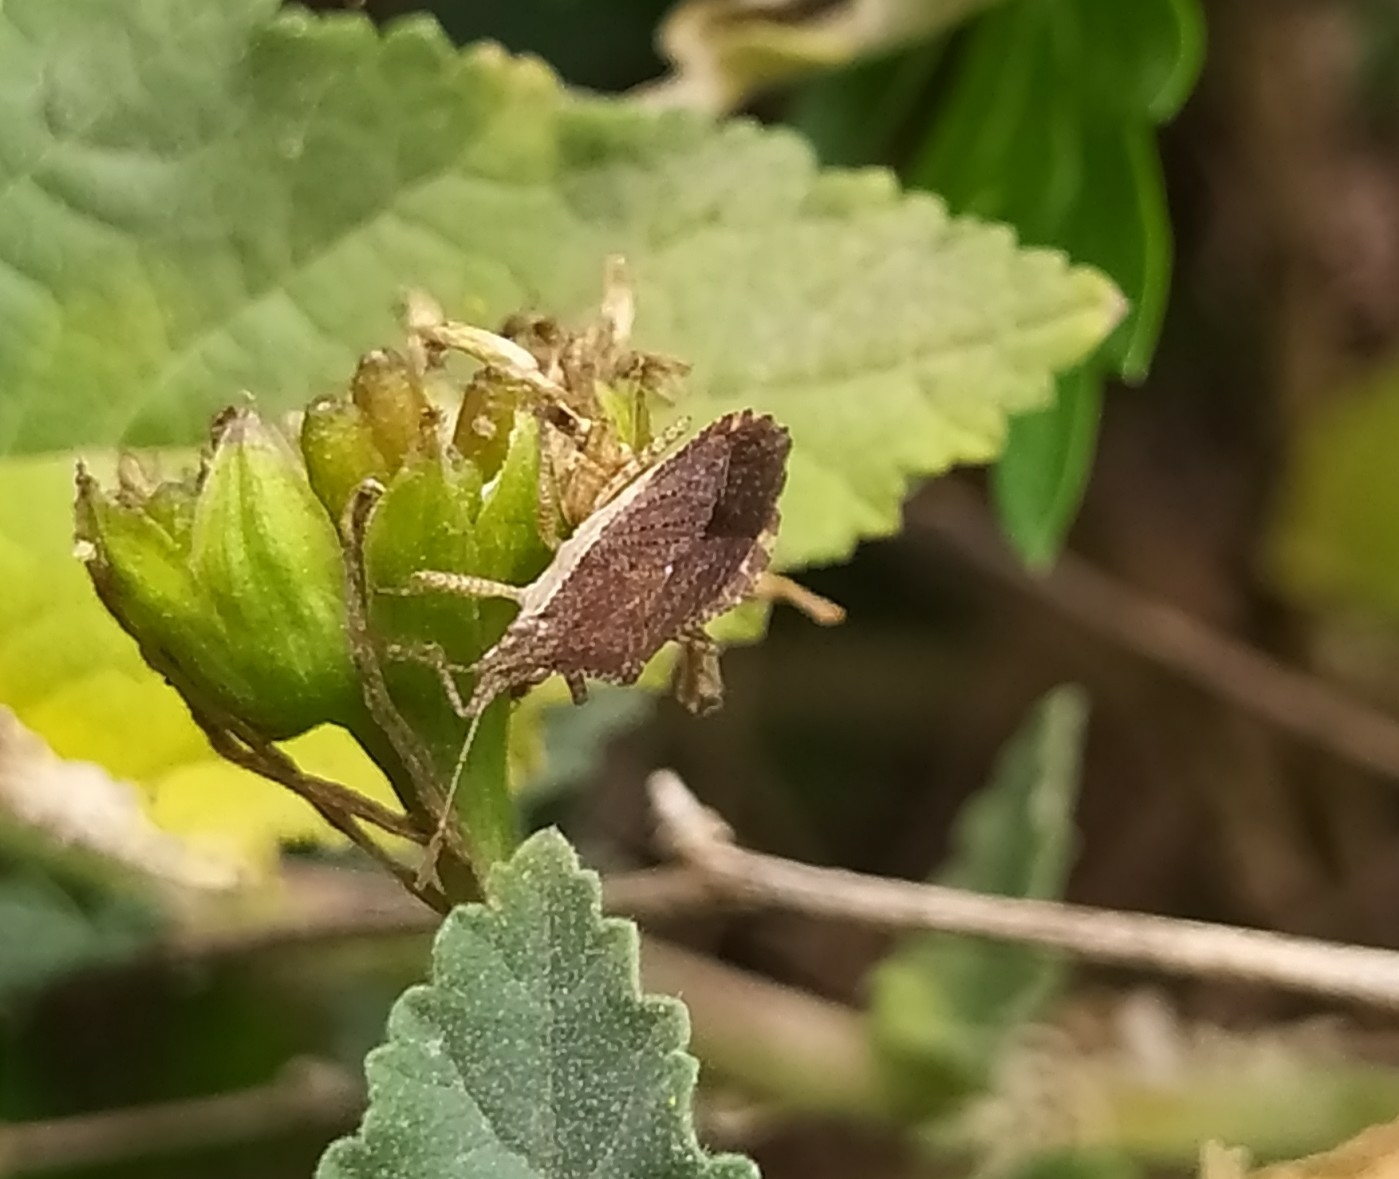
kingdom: Animalia
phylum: Arthropoda
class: Insecta
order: Hemiptera
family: Coreidae
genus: Althos
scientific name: Althos obscurator
